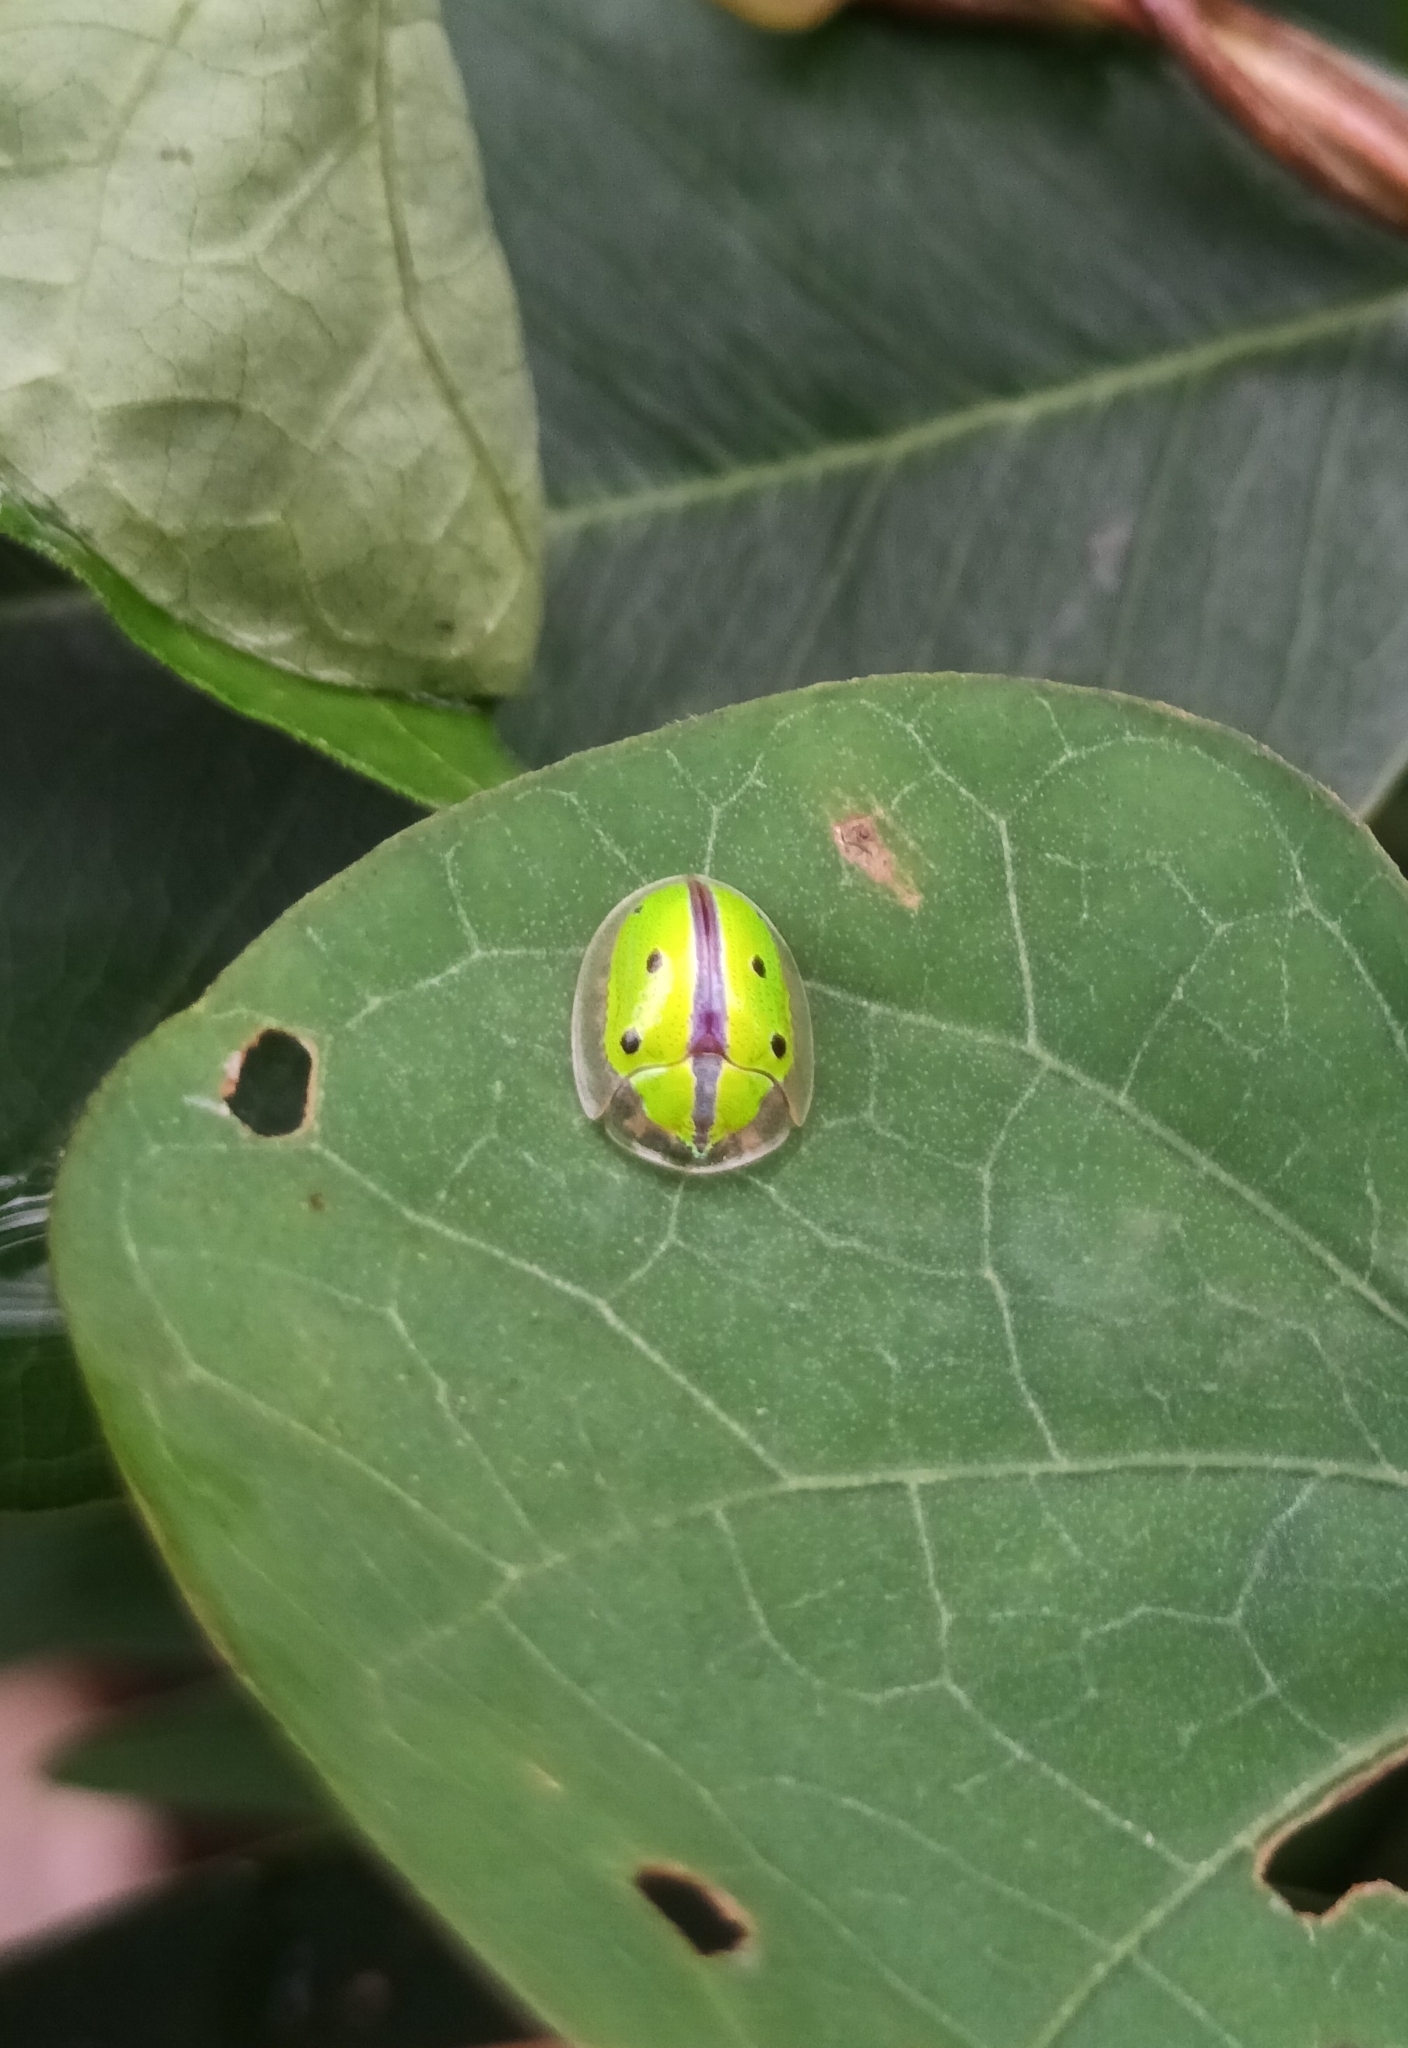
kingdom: Animalia
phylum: Arthropoda
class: Insecta
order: Coleoptera
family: Chrysomelidae
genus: Chiridopsis
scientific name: Chiridopsis bipunctata
